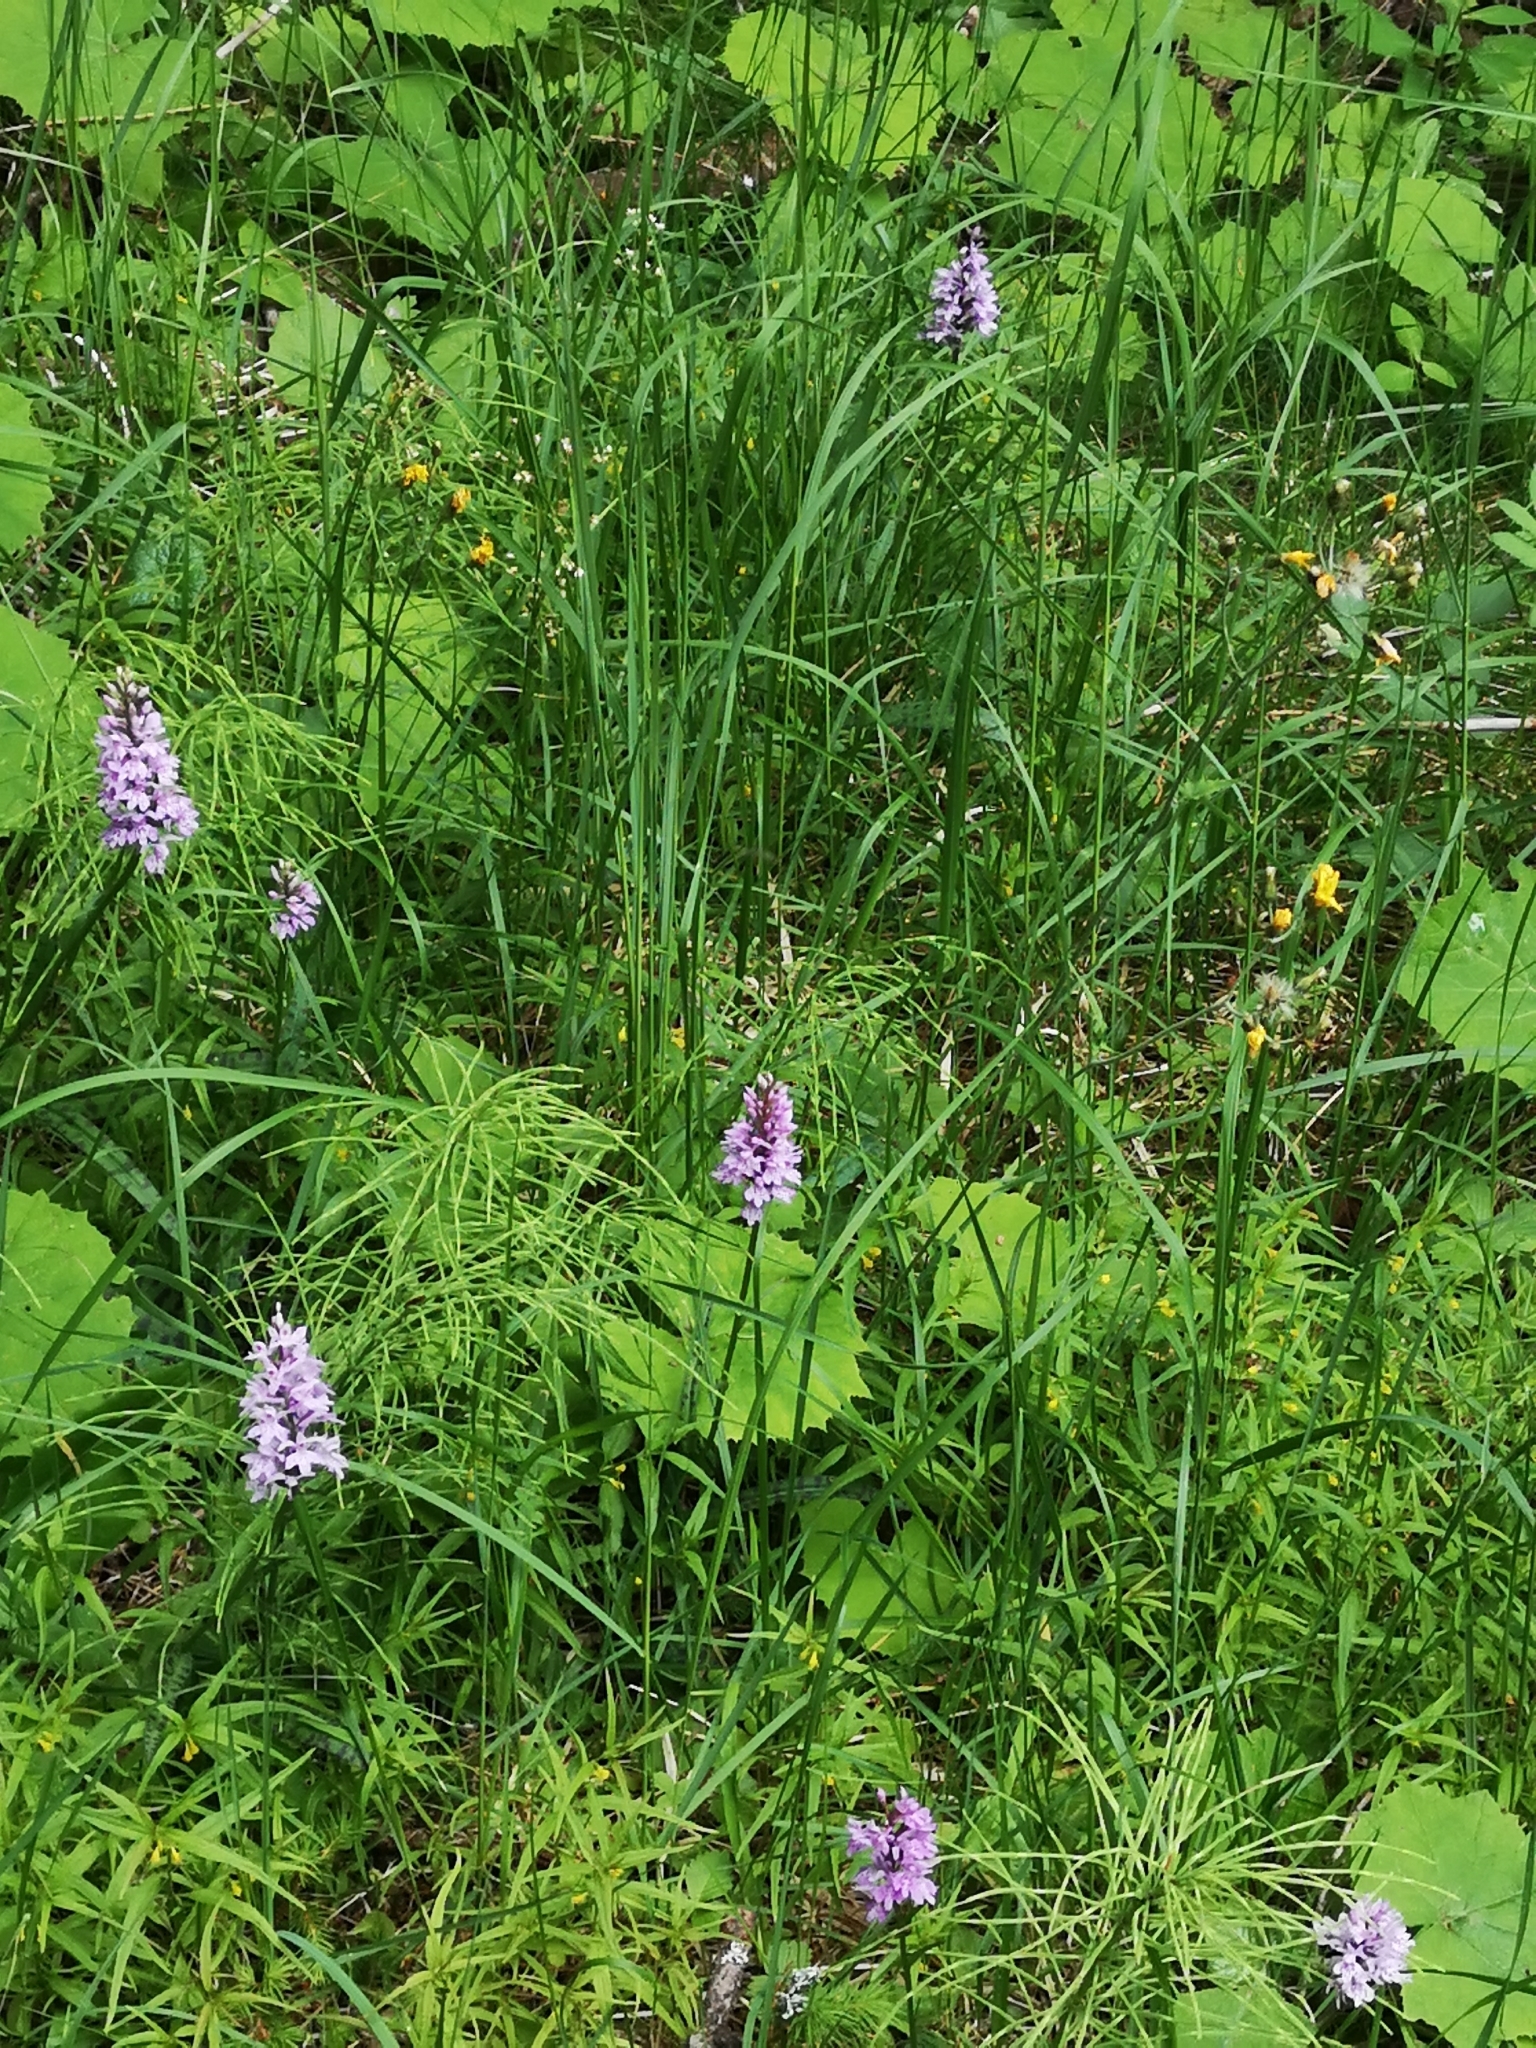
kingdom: Plantae
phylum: Tracheophyta
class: Liliopsida
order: Asparagales
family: Orchidaceae
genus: Dactylorhiza
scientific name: Dactylorhiza maculata
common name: Heath spotted-orchid
